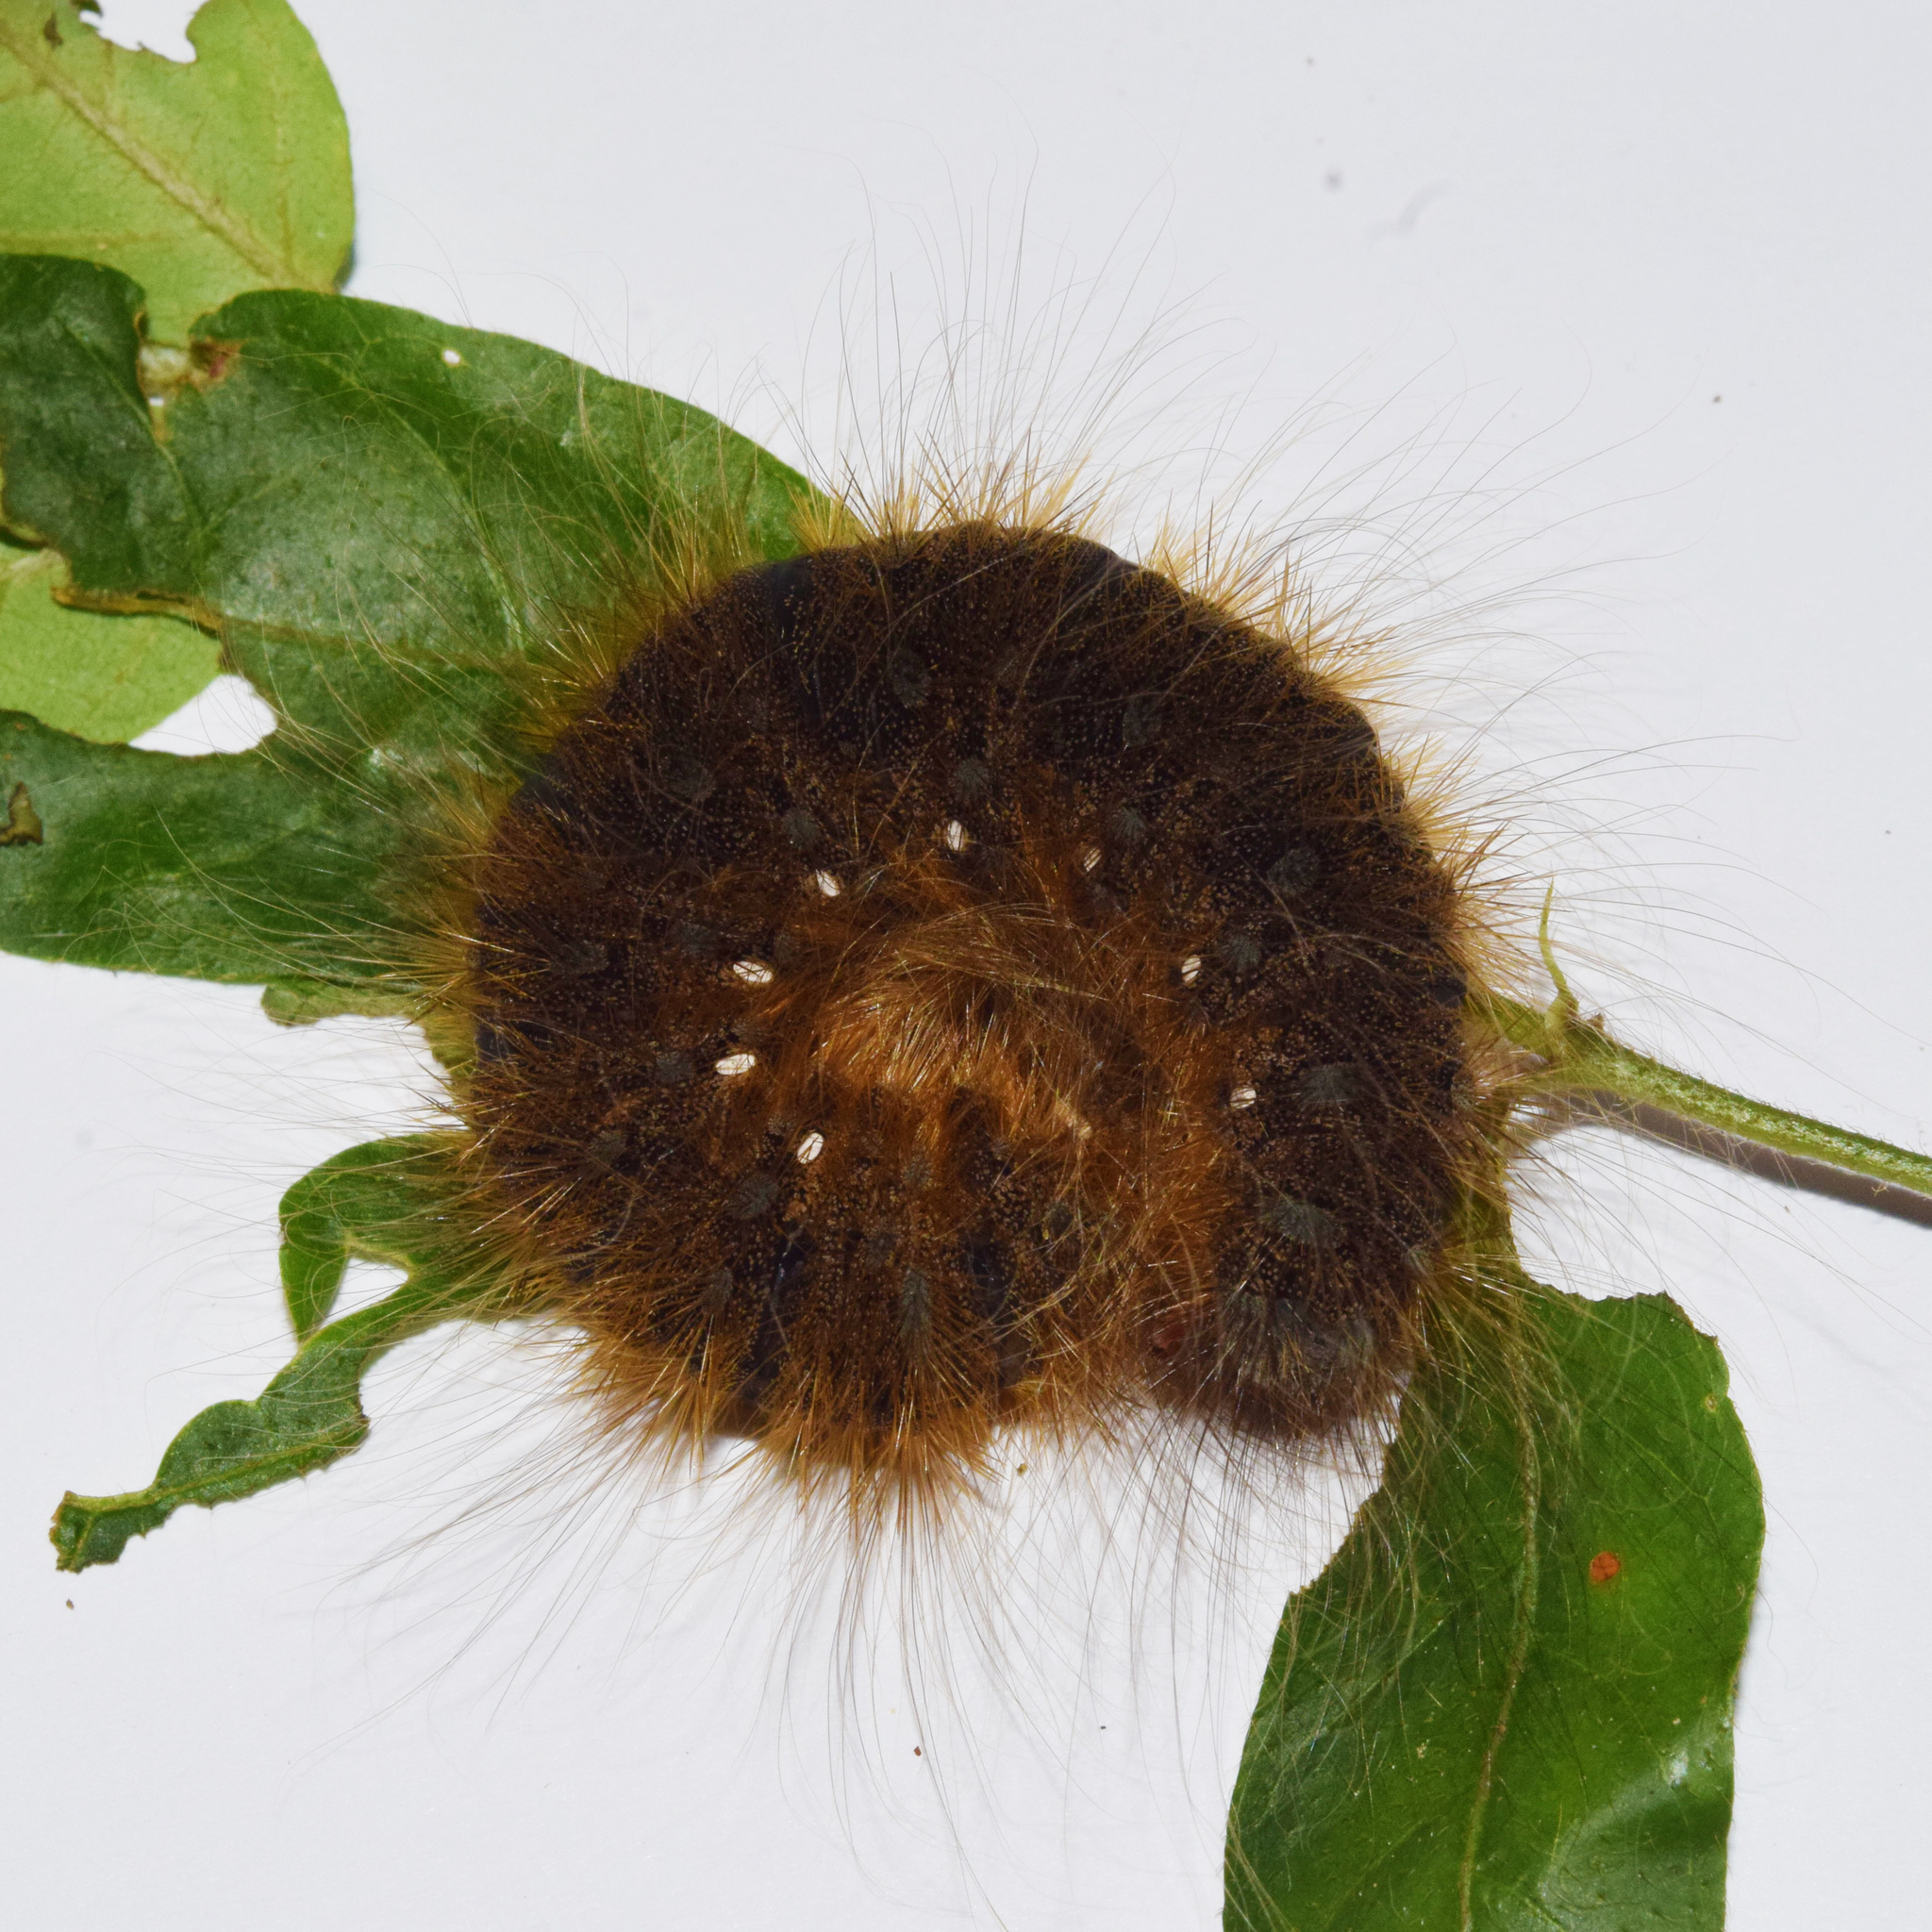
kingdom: Animalia
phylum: Arthropoda
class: Insecta
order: Lepidoptera
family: Eupterotidae
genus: Jana
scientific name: Jana eurymas
